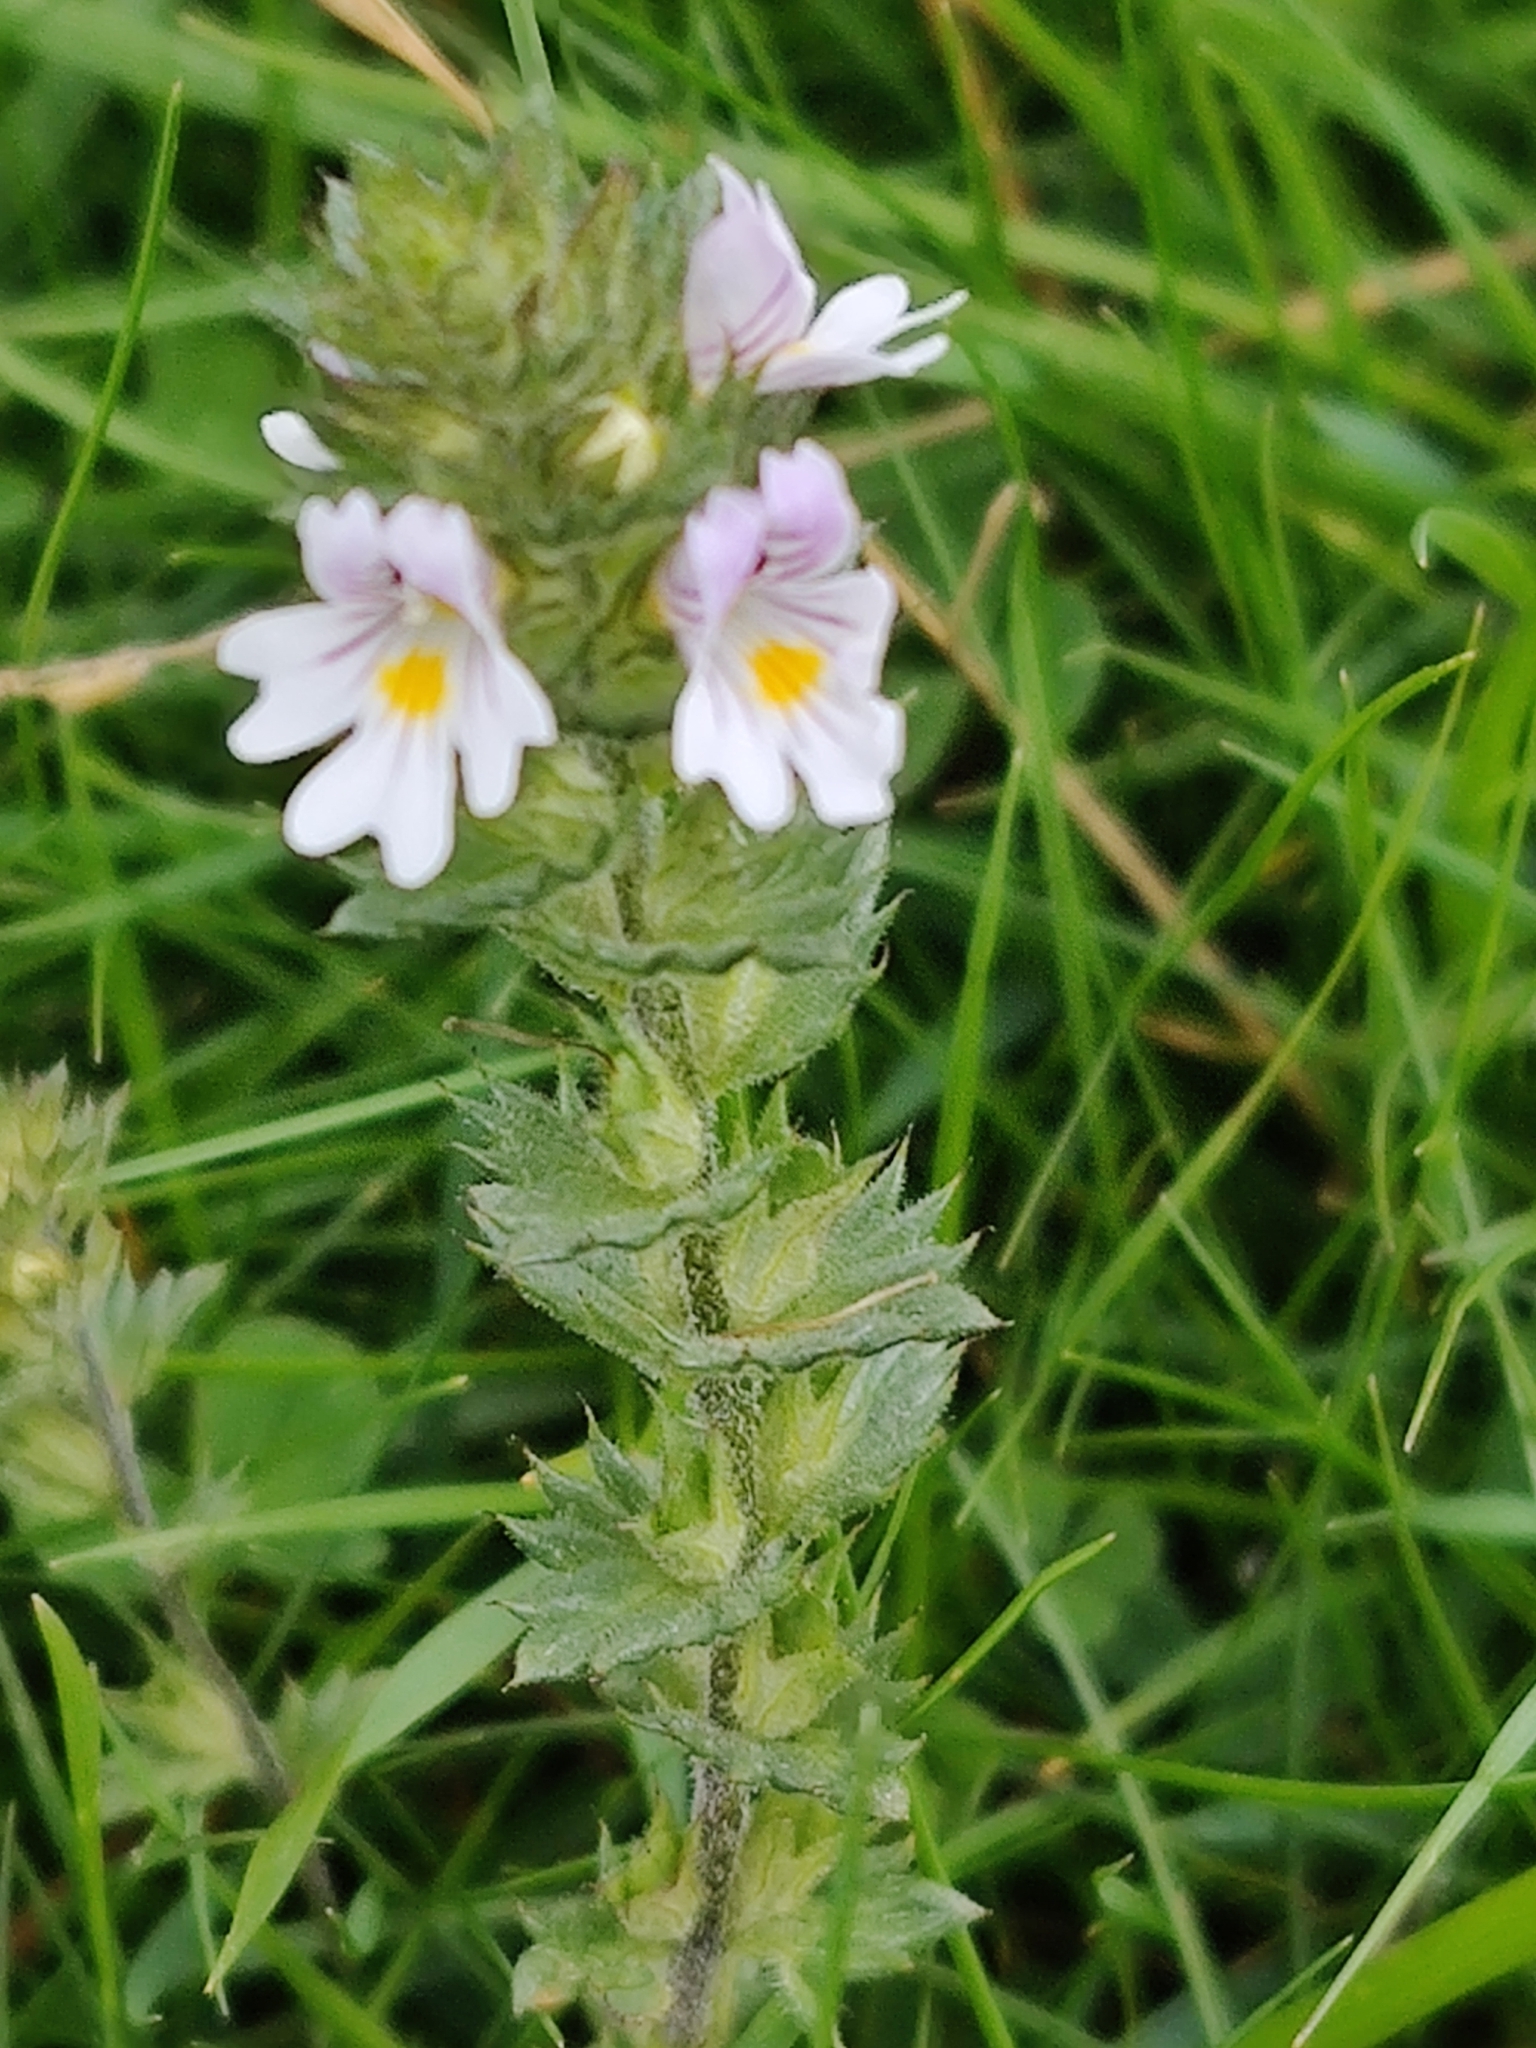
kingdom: Plantae
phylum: Tracheophyta
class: Magnoliopsida
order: Lamiales
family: Orobanchaceae
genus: Euphrasia
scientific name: Euphrasia nemorosa
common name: Common eyebright
